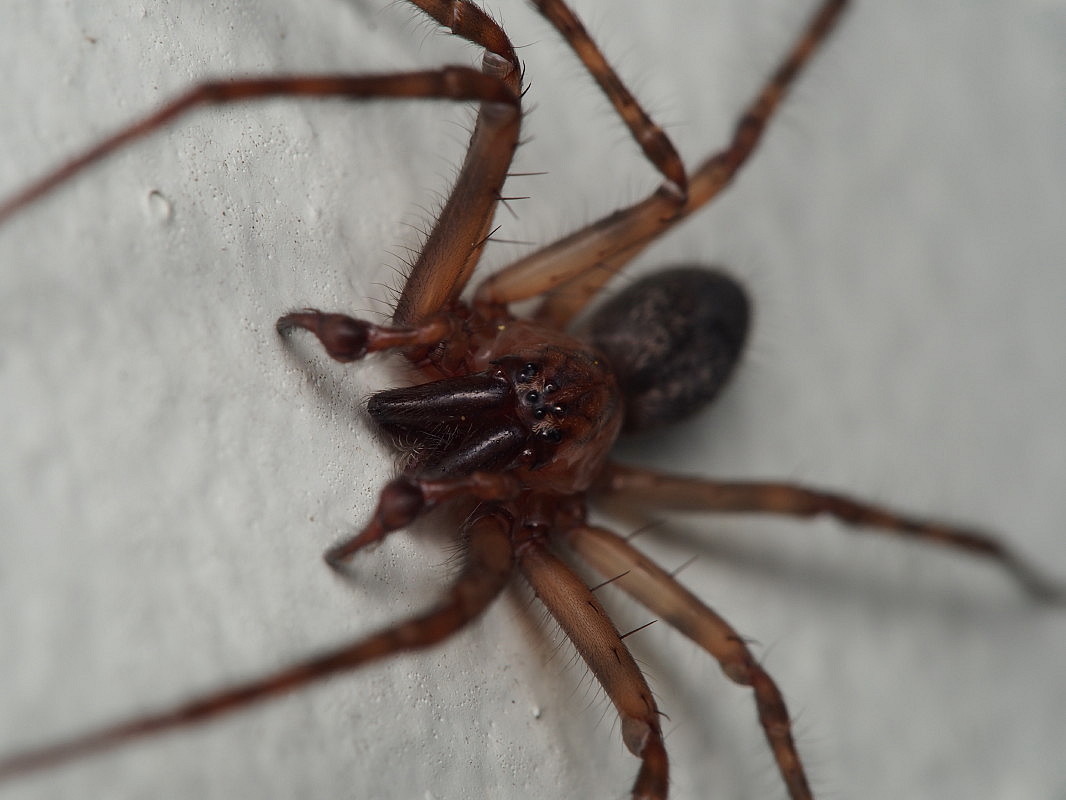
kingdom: Animalia
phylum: Arthropoda
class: Arachnida
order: Araneae
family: Desidae
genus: Nuisiana
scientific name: Nuisiana arboris
